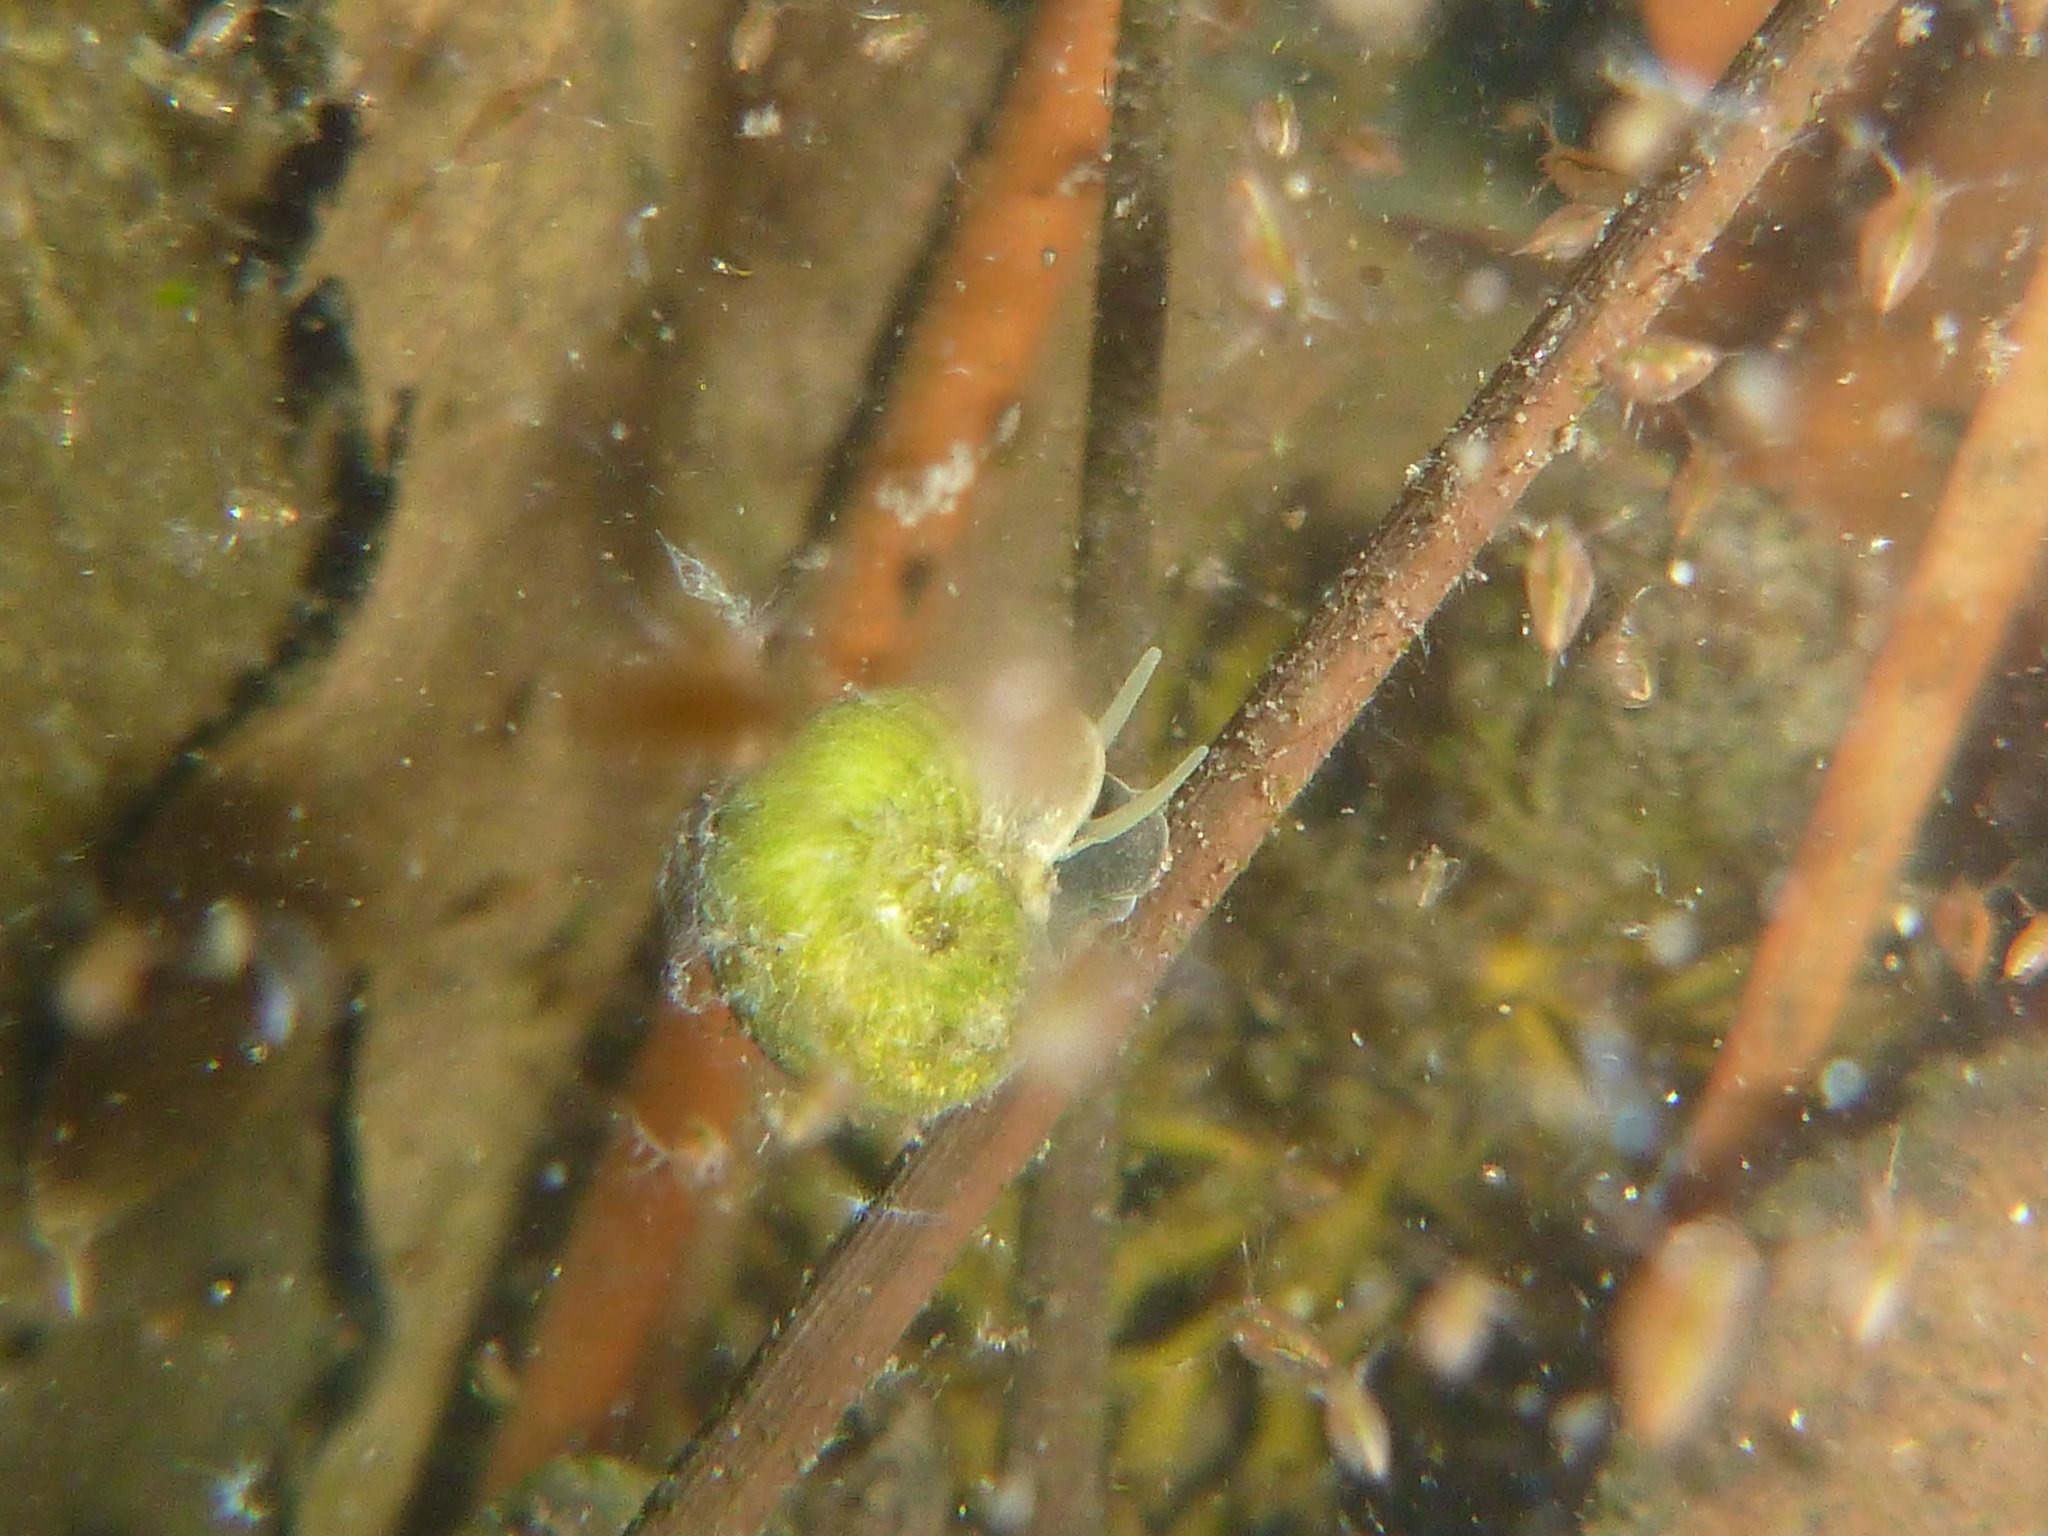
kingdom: Animalia
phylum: Mollusca
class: Gastropoda
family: Planorbidae
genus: Planorbarius
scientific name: Planorbarius corneus
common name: Great ramshorn
